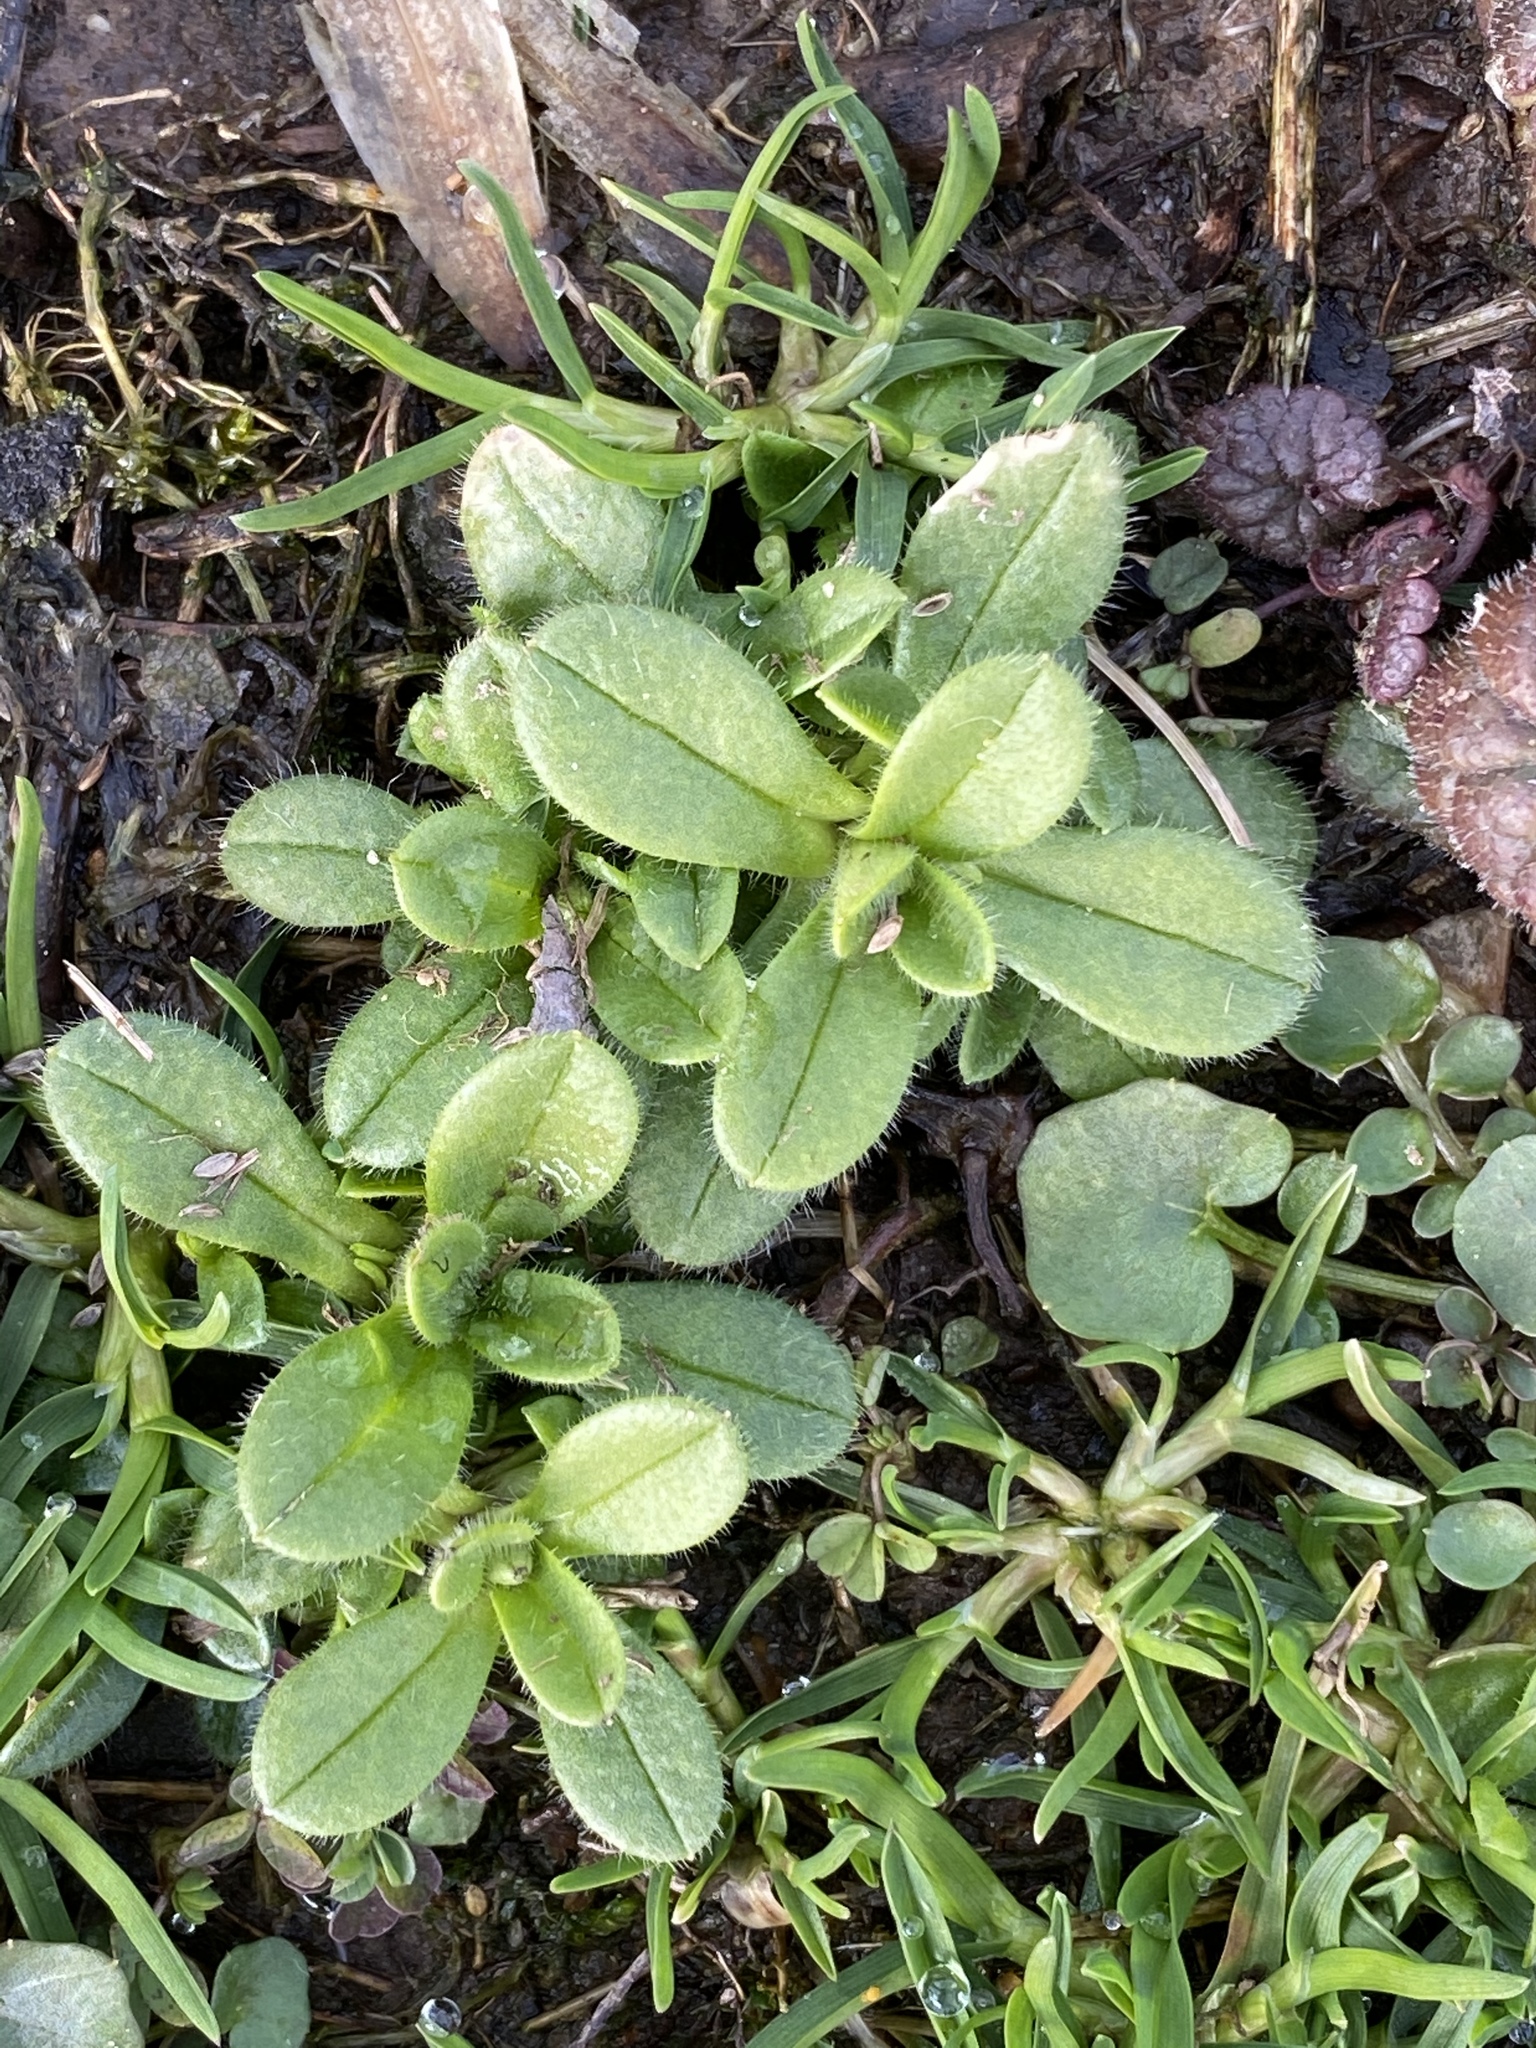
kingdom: Plantae
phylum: Tracheophyta
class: Magnoliopsida
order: Caryophyllales
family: Caryophyllaceae
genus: Cerastium
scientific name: Cerastium fontanum
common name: Common mouse-ear
